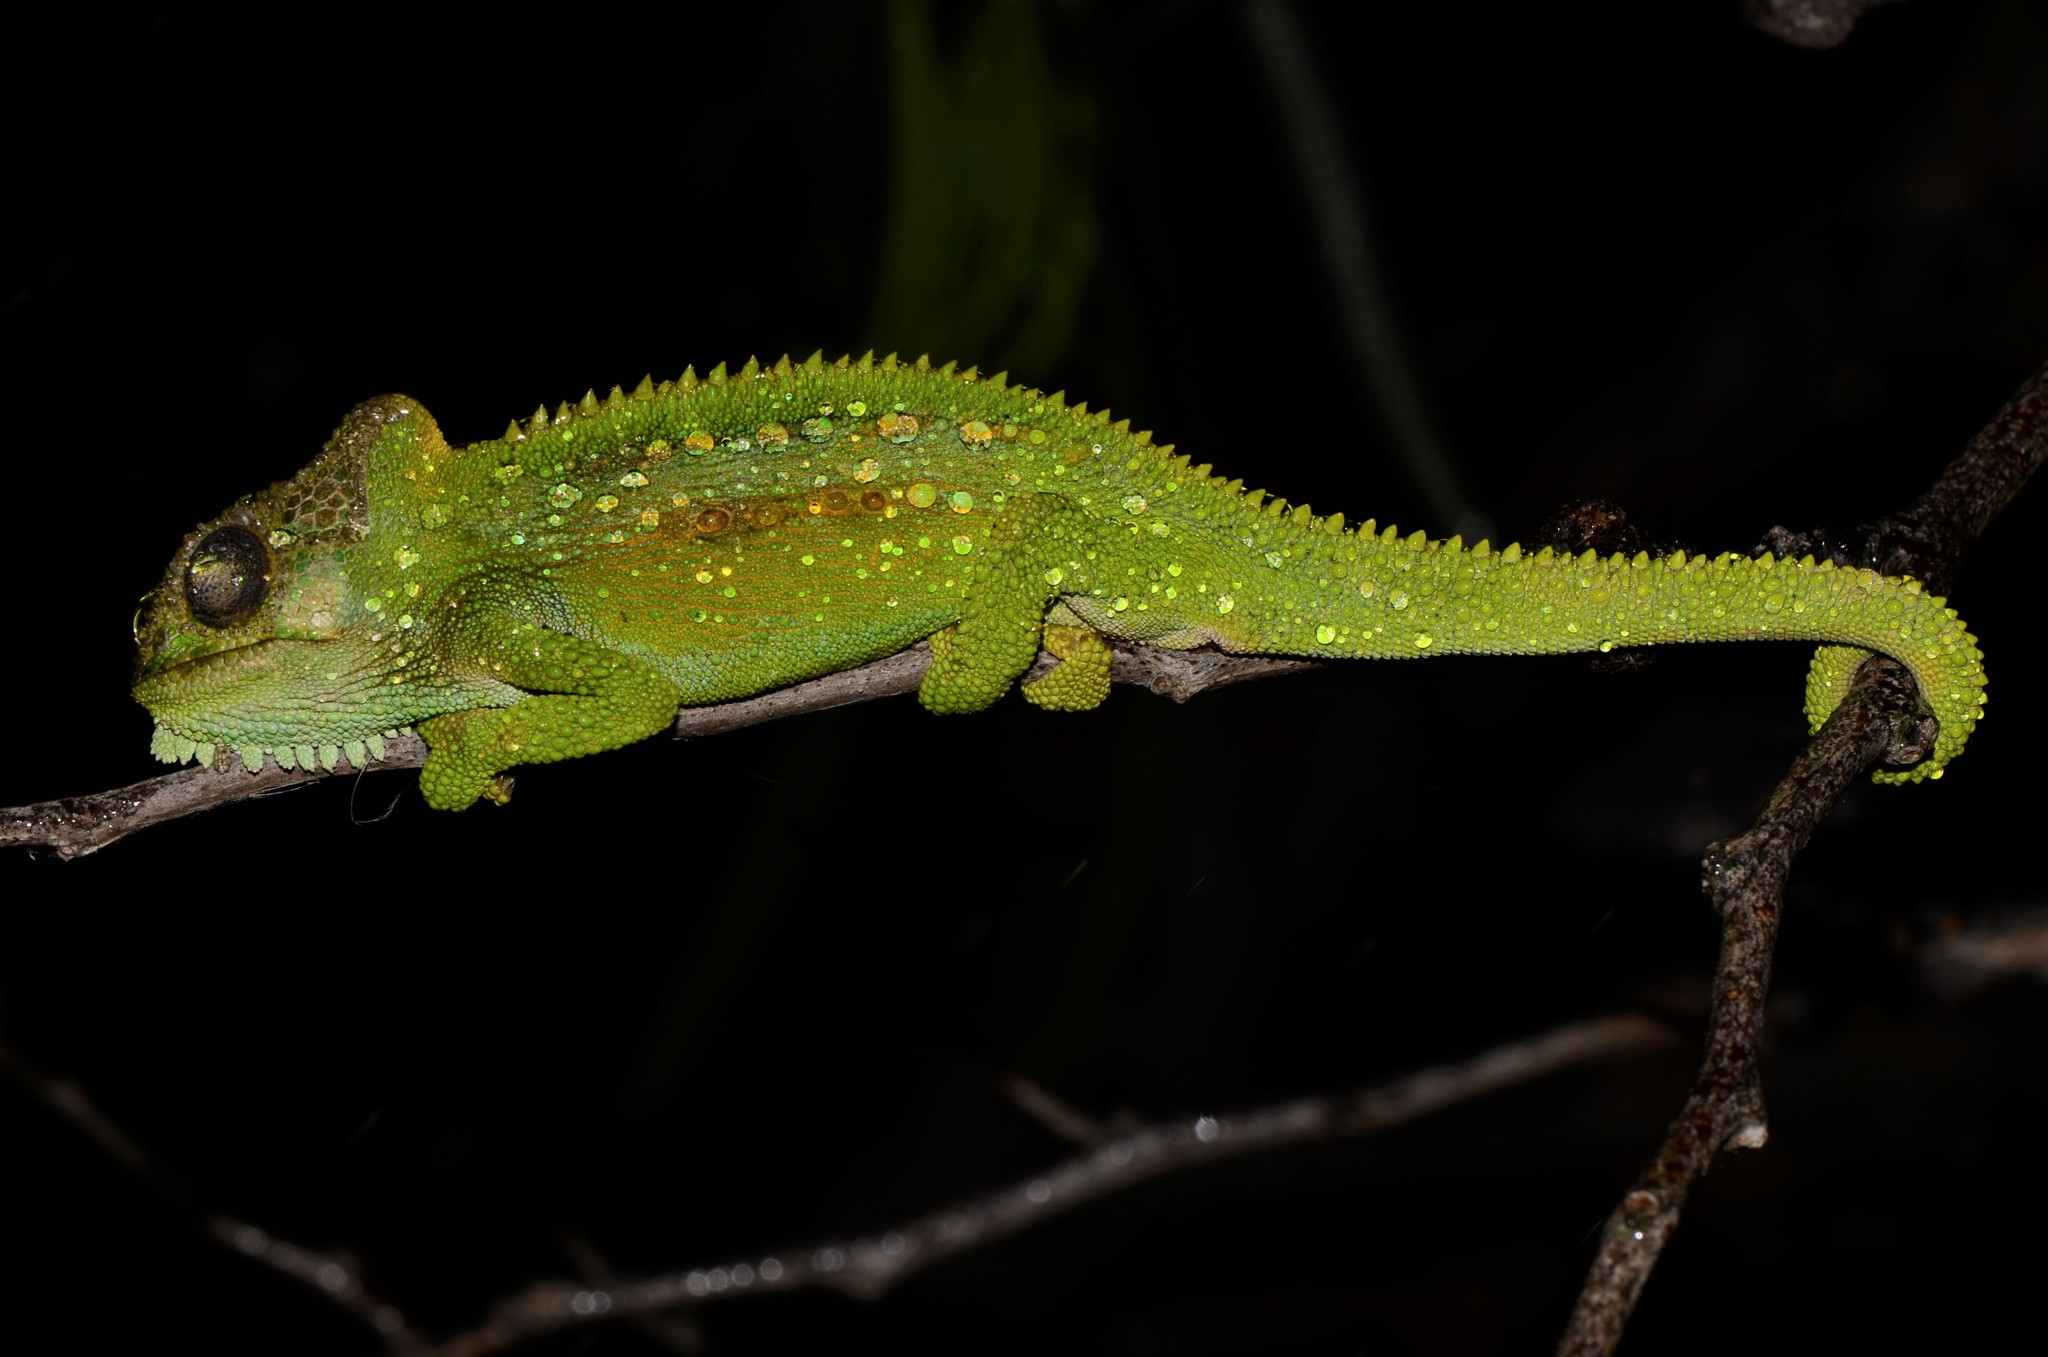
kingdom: Animalia
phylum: Chordata
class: Squamata
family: Chamaeleonidae
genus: Bradypodion
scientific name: Bradypodion pumilum
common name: Cape dwarf chameleon
